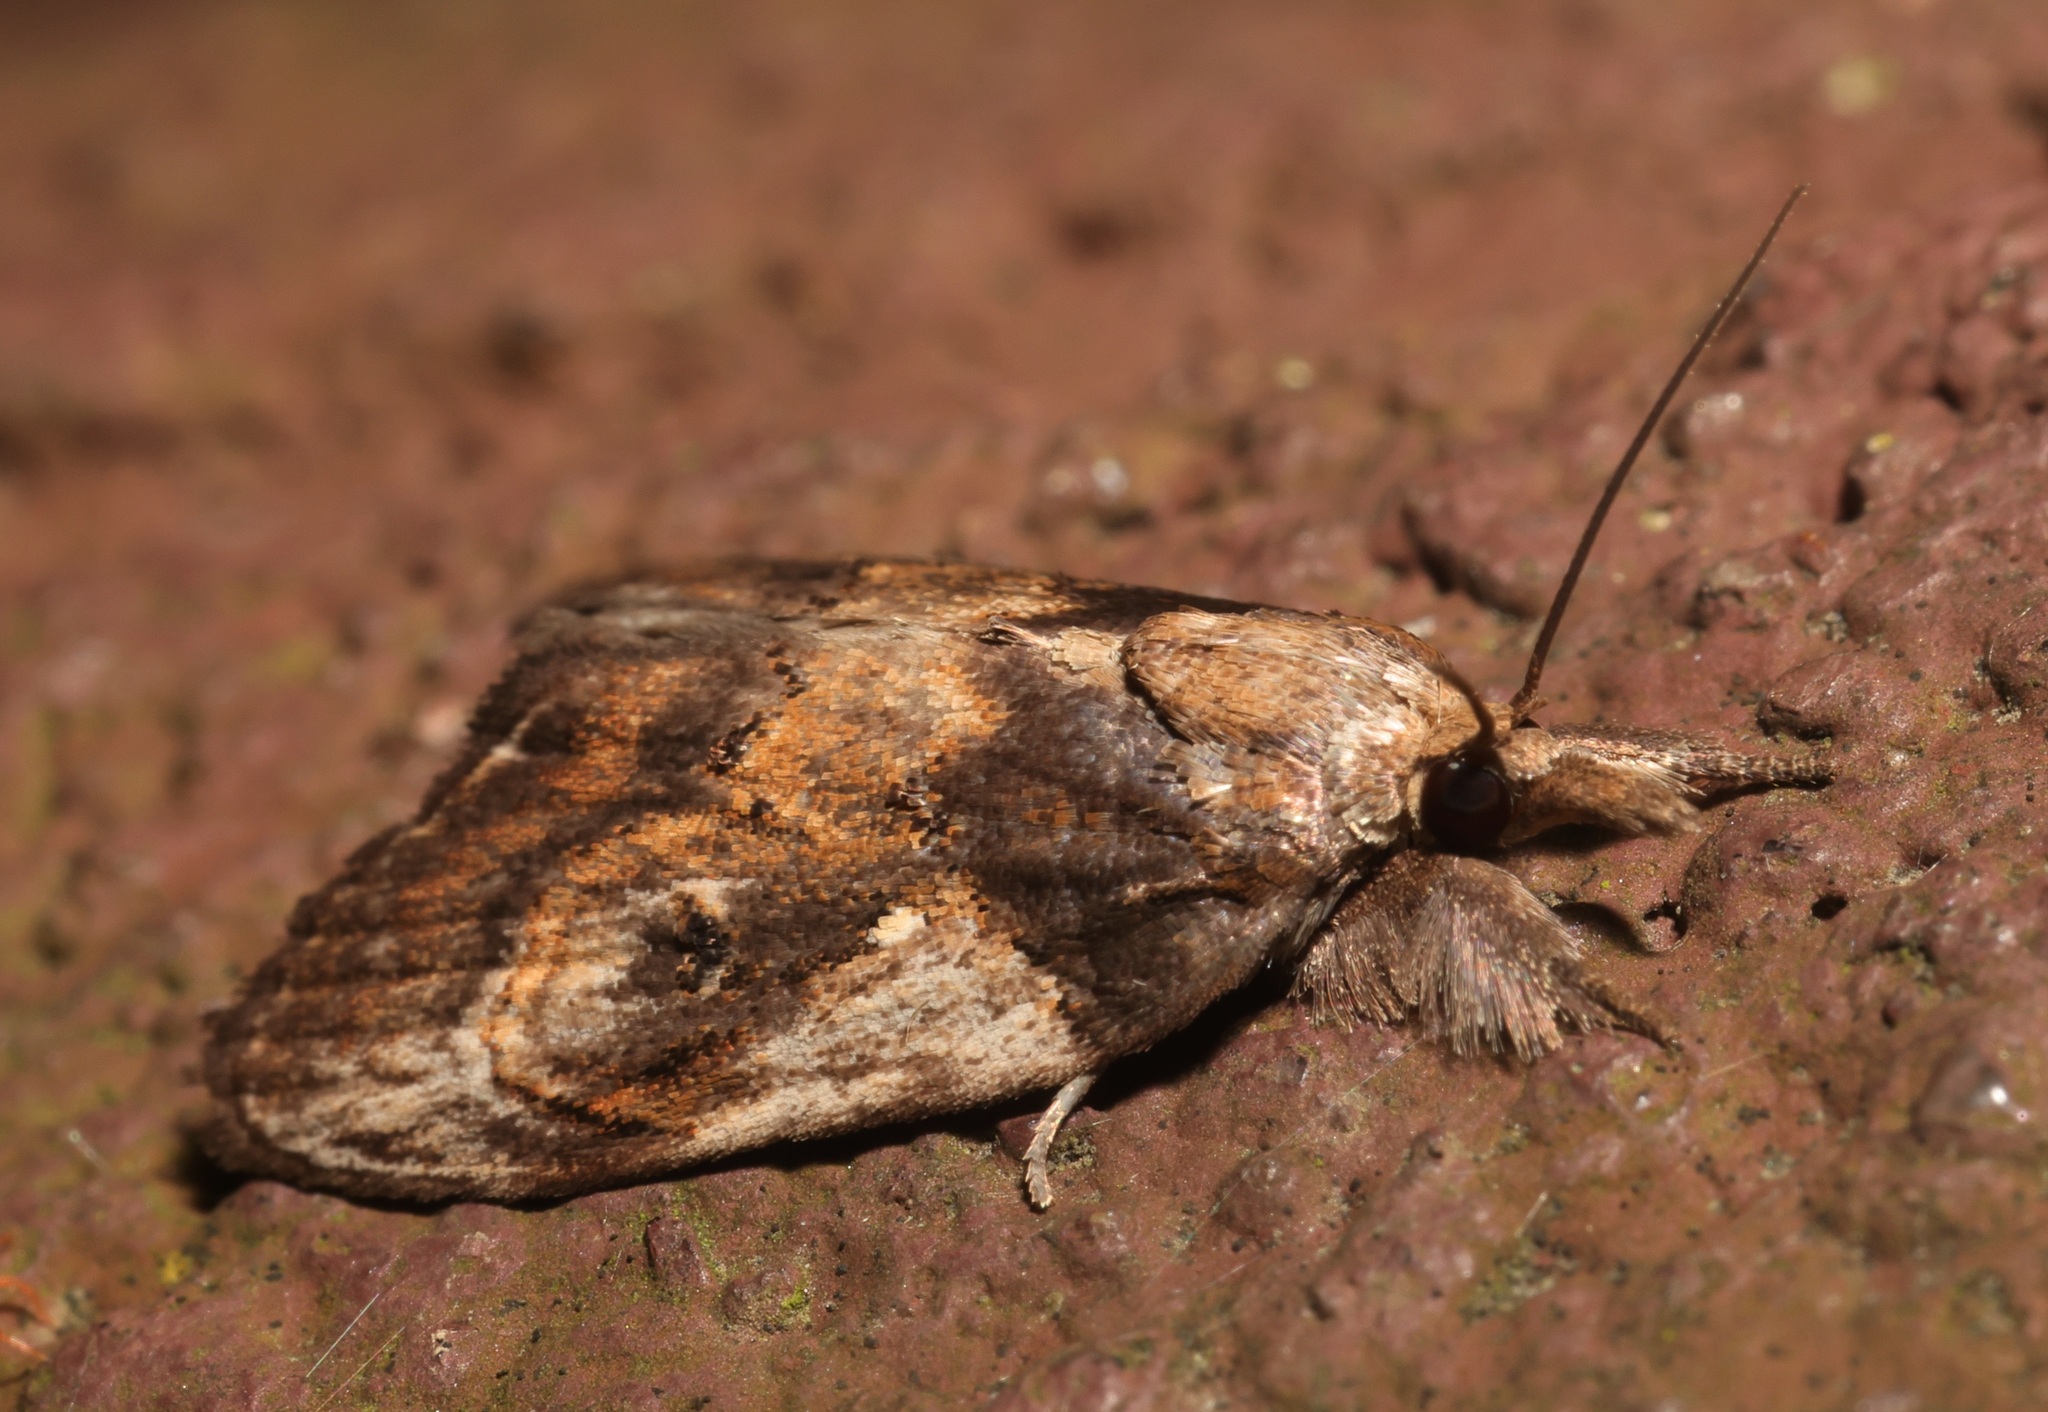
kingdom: Animalia
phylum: Arthropoda
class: Insecta
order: Lepidoptera
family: Nolidae
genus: Selepa
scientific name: Selepa molybdea
